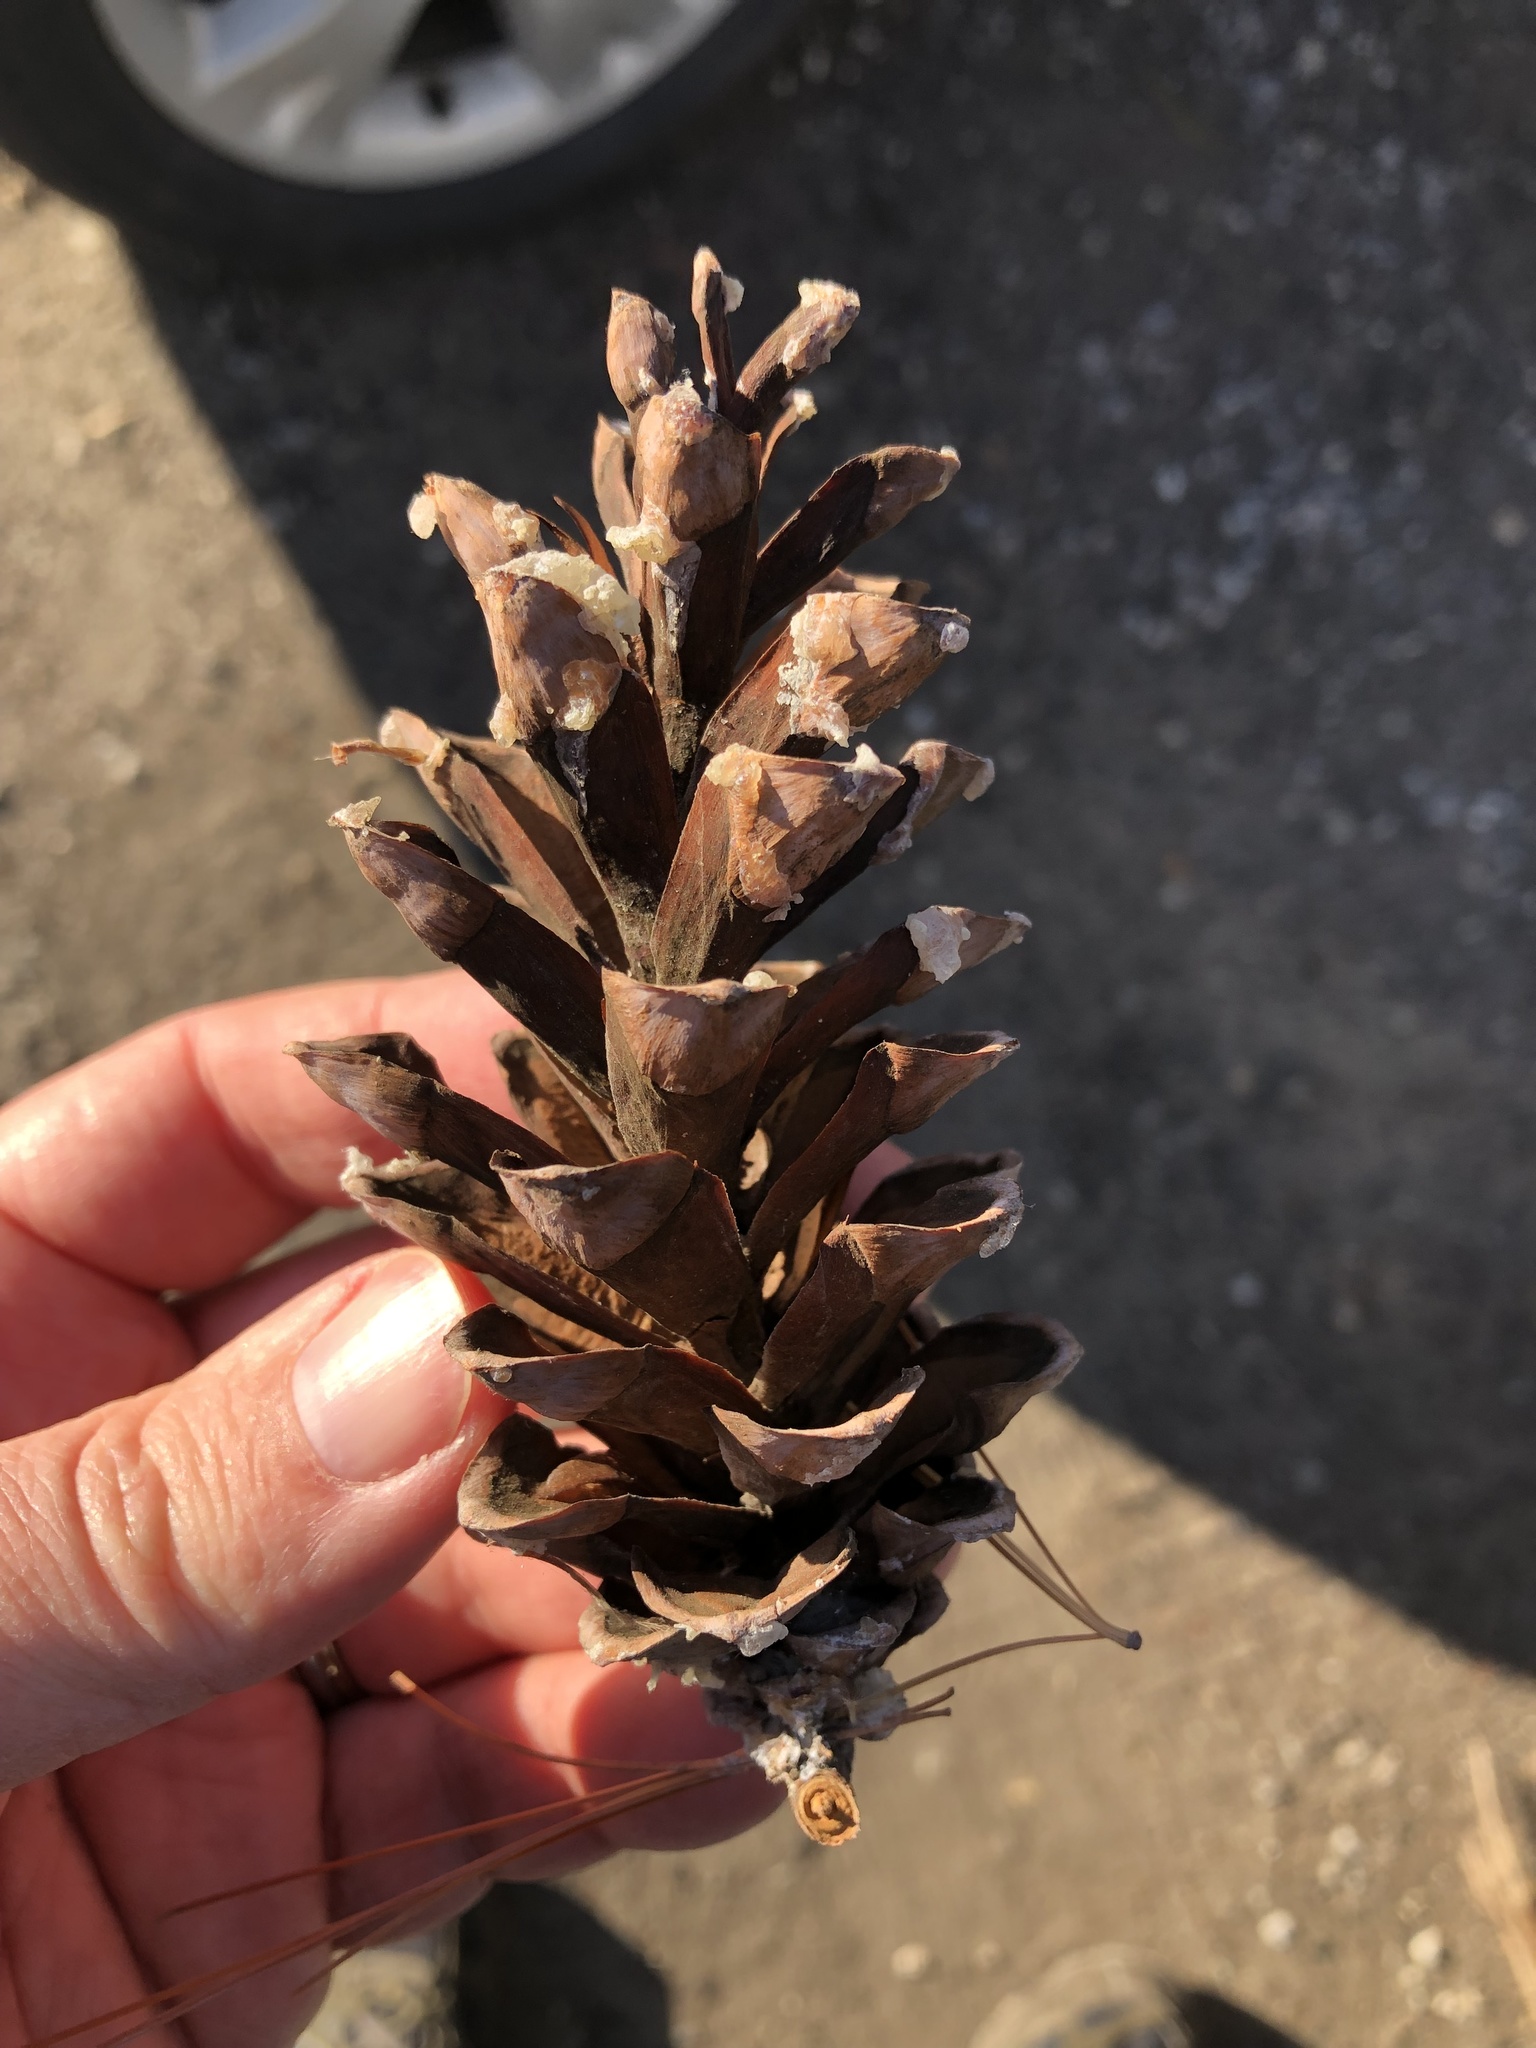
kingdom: Plantae
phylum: Tracheophyta
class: Pinopsida
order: Pinales
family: Pinaceae
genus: Pinus
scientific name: Pinus strobus
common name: Weymouth pine
